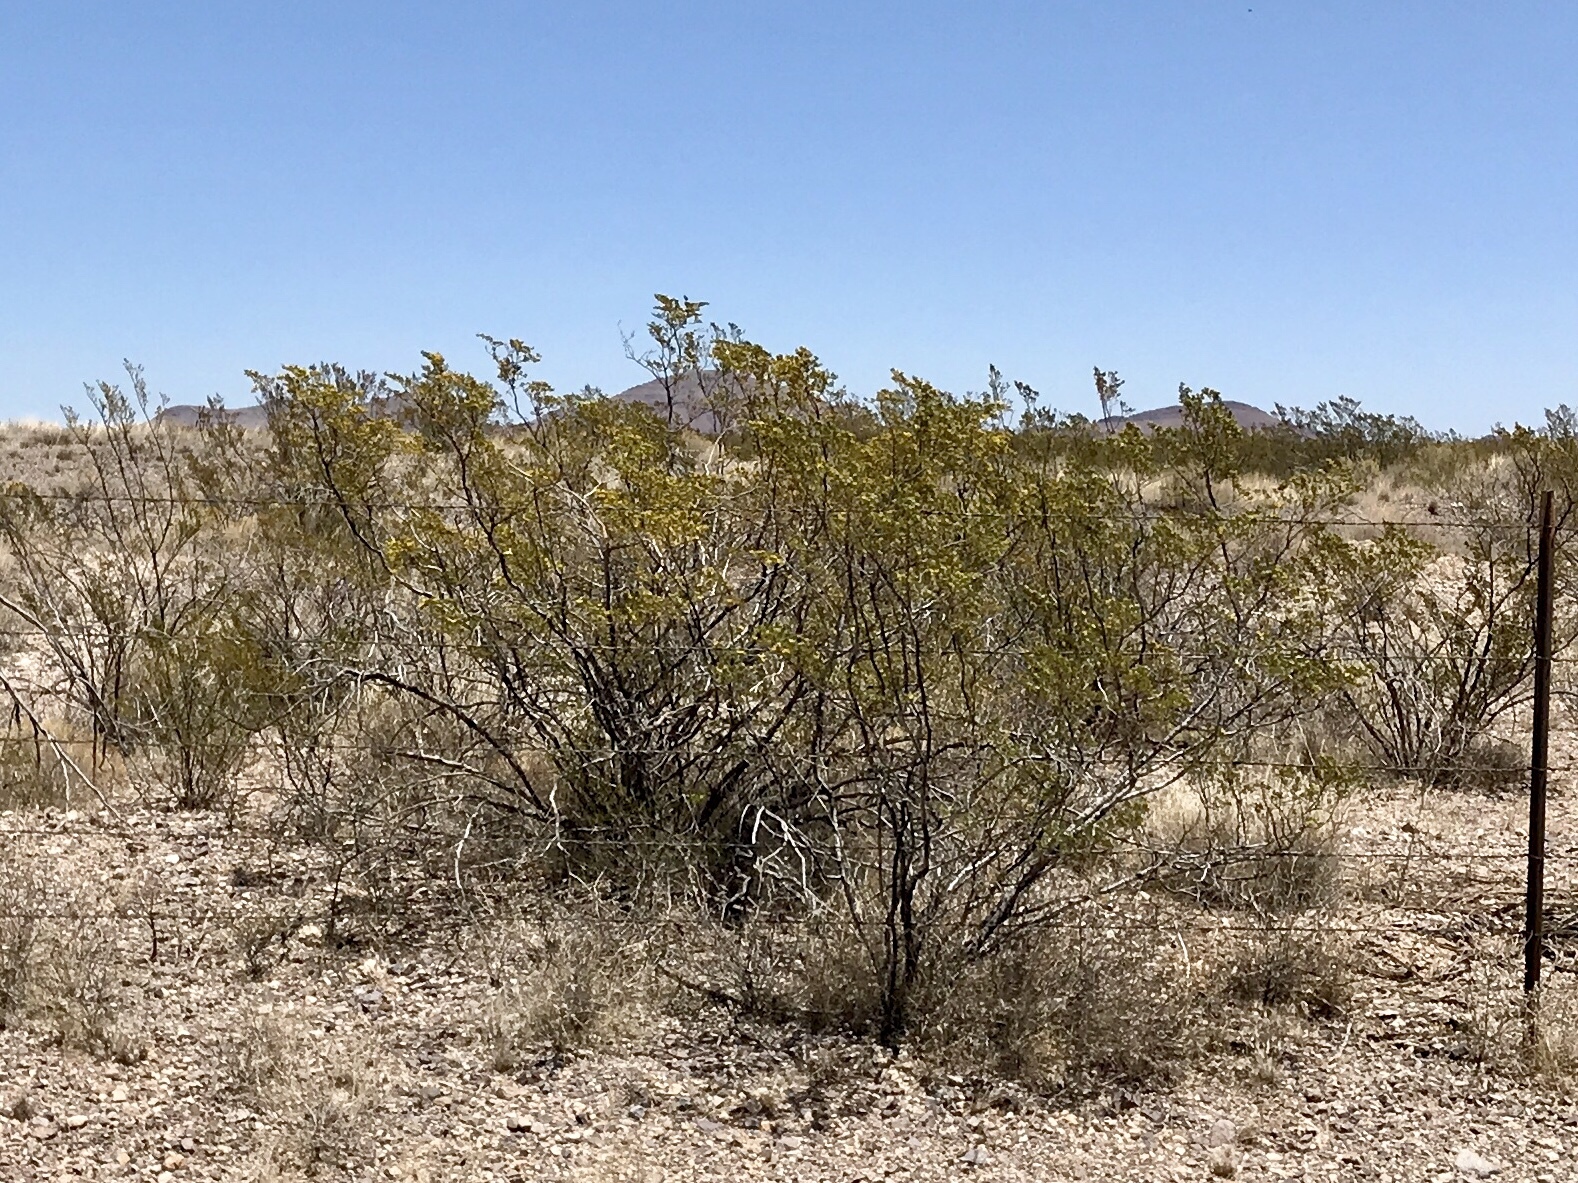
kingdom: Plantae
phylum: Tracheophyta
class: Magnoliopsida
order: Zygophyllales
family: Zygophyllaceae
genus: Larrea
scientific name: Larrea tridentata
